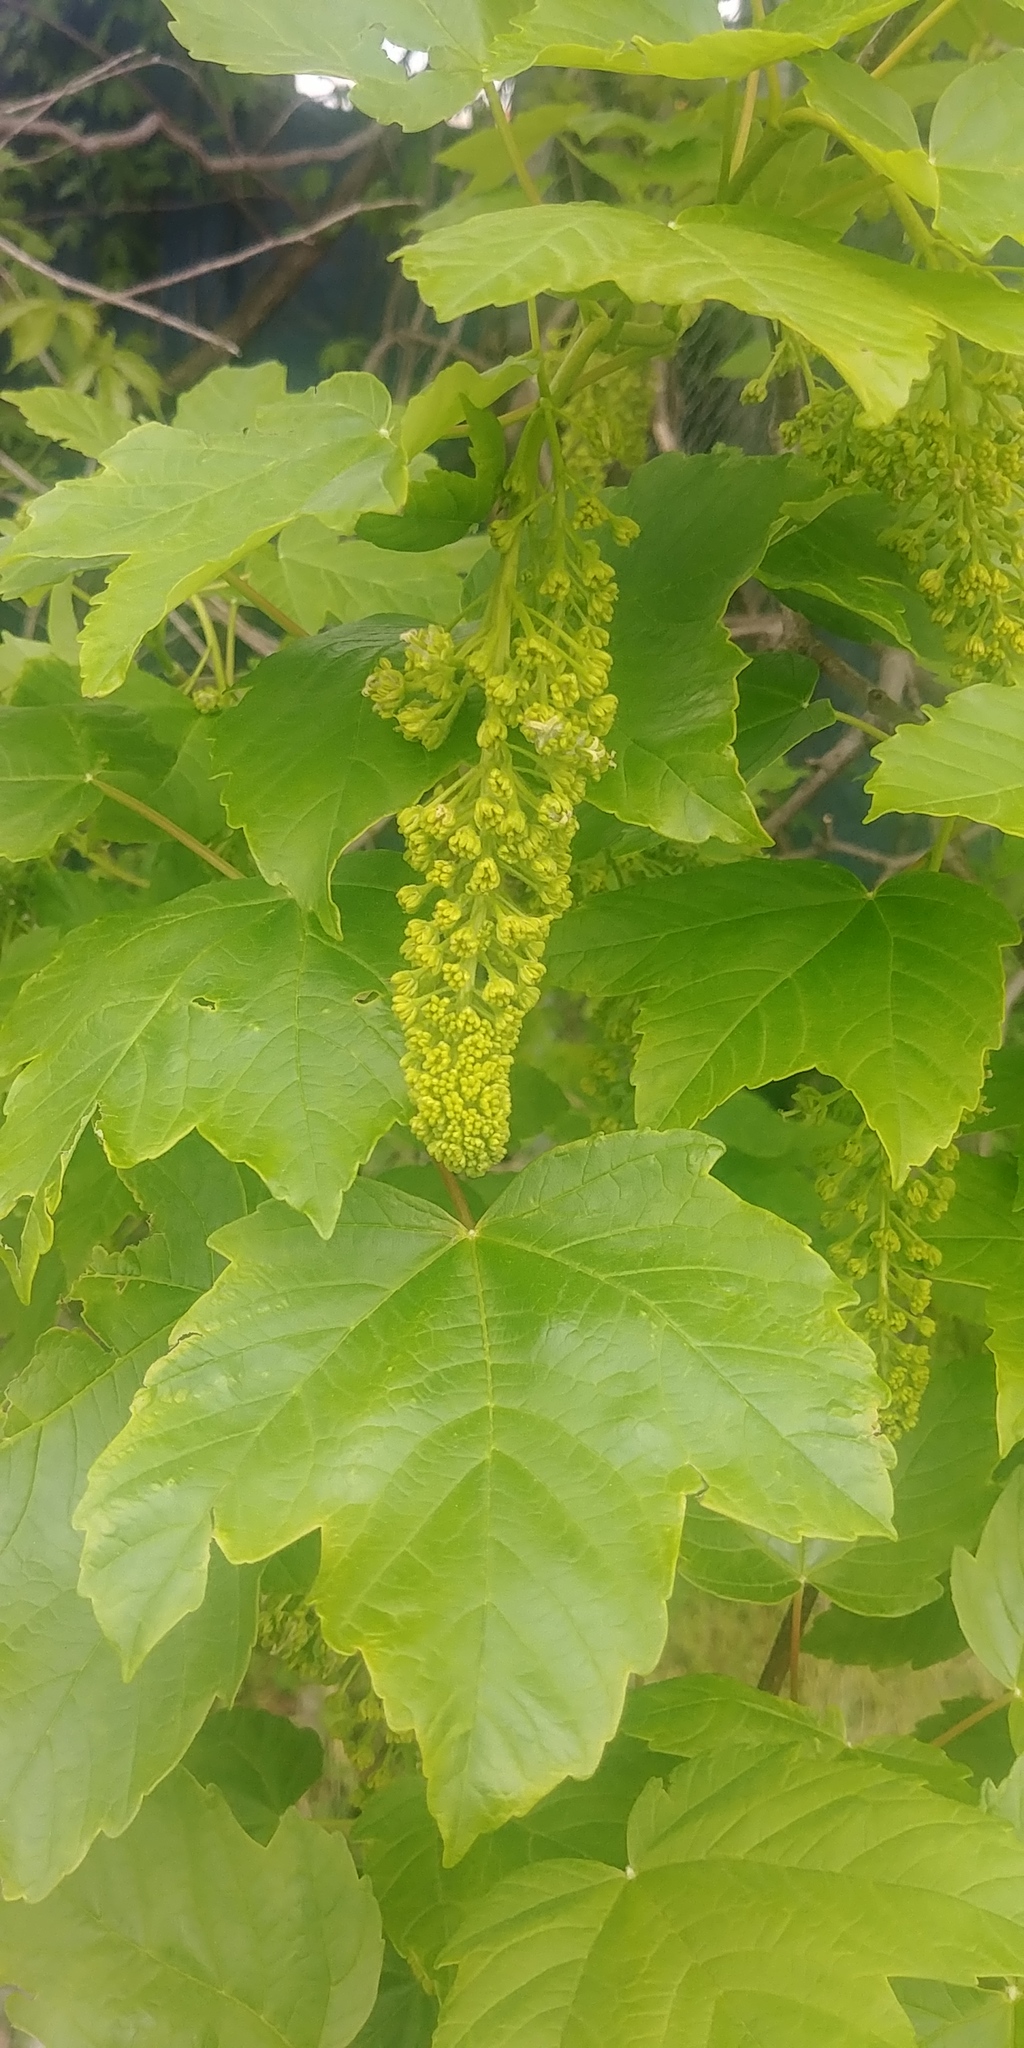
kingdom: Plantae
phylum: Tracheophyta
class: Magnoliopsida
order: Sapindales
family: Sapindaceae
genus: Acer
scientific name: Acer pseudoplatanus
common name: Sycamore
